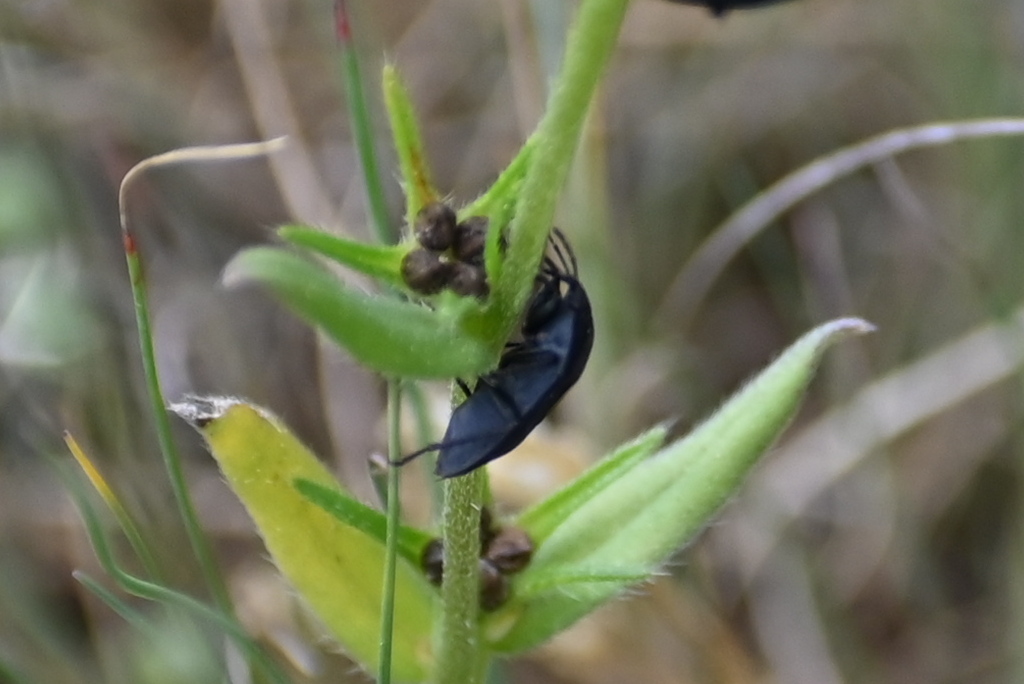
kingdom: Animalia
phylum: Arthropoda
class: Insecta
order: Hemiptera
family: Rhyparochromidae
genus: Aellopus
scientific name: Aellopus atratus
